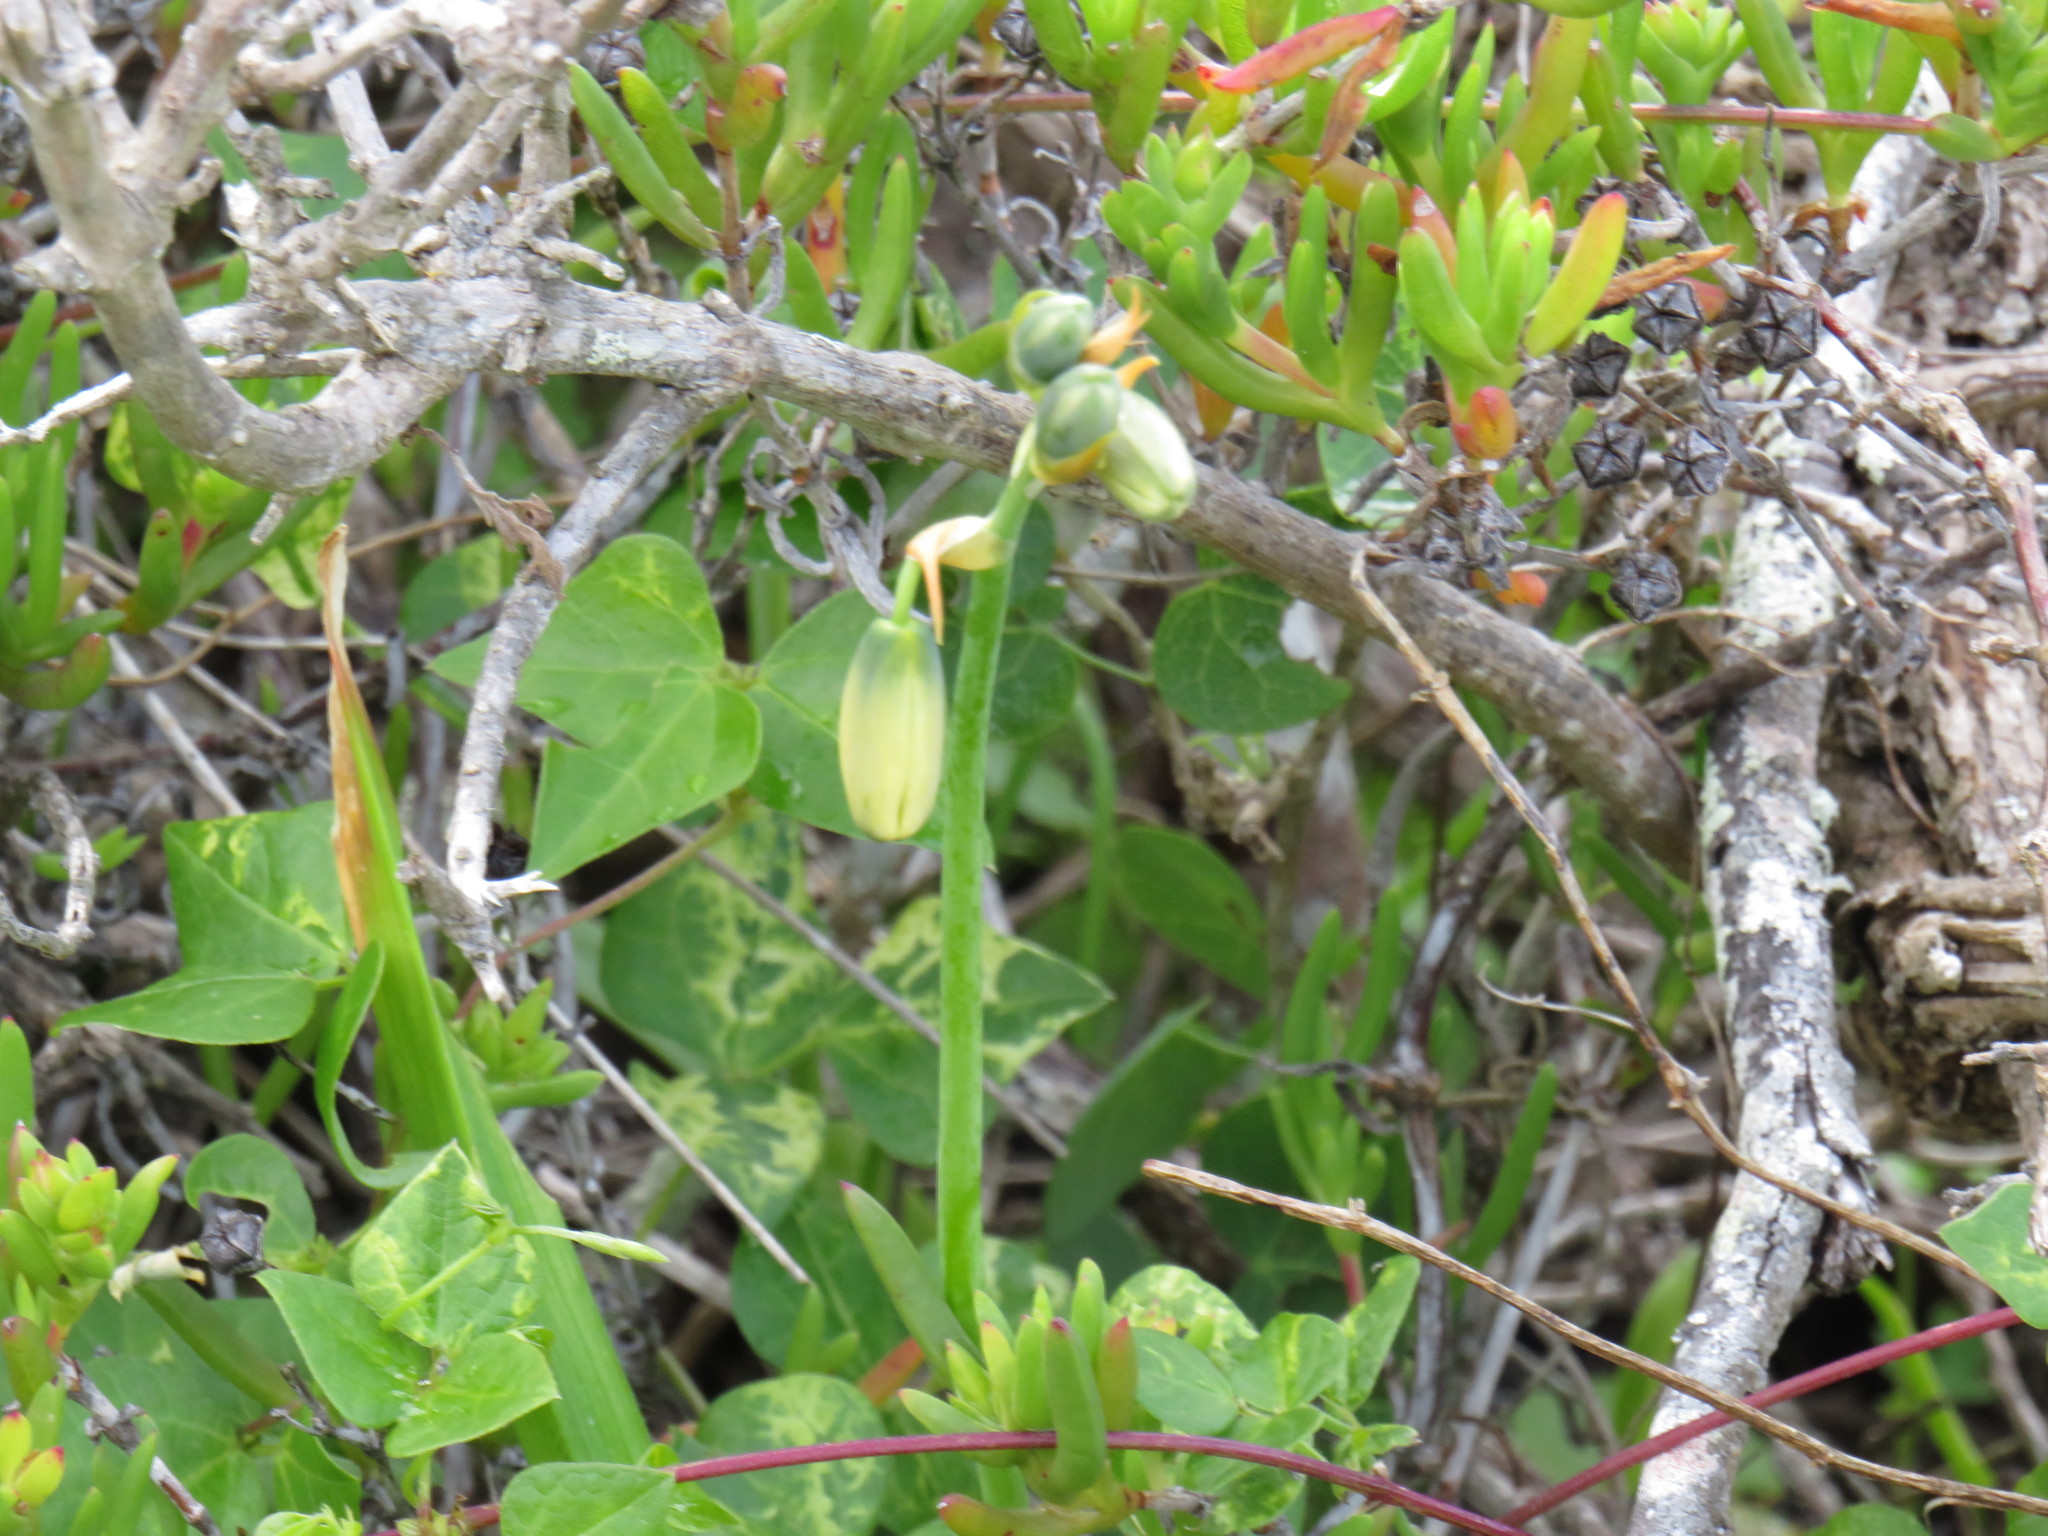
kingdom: Plantae
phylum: Tracheophyta
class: Liliopsida
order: Asparagales
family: Asparagaceae
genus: Albuca
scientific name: Albuca cooperi
